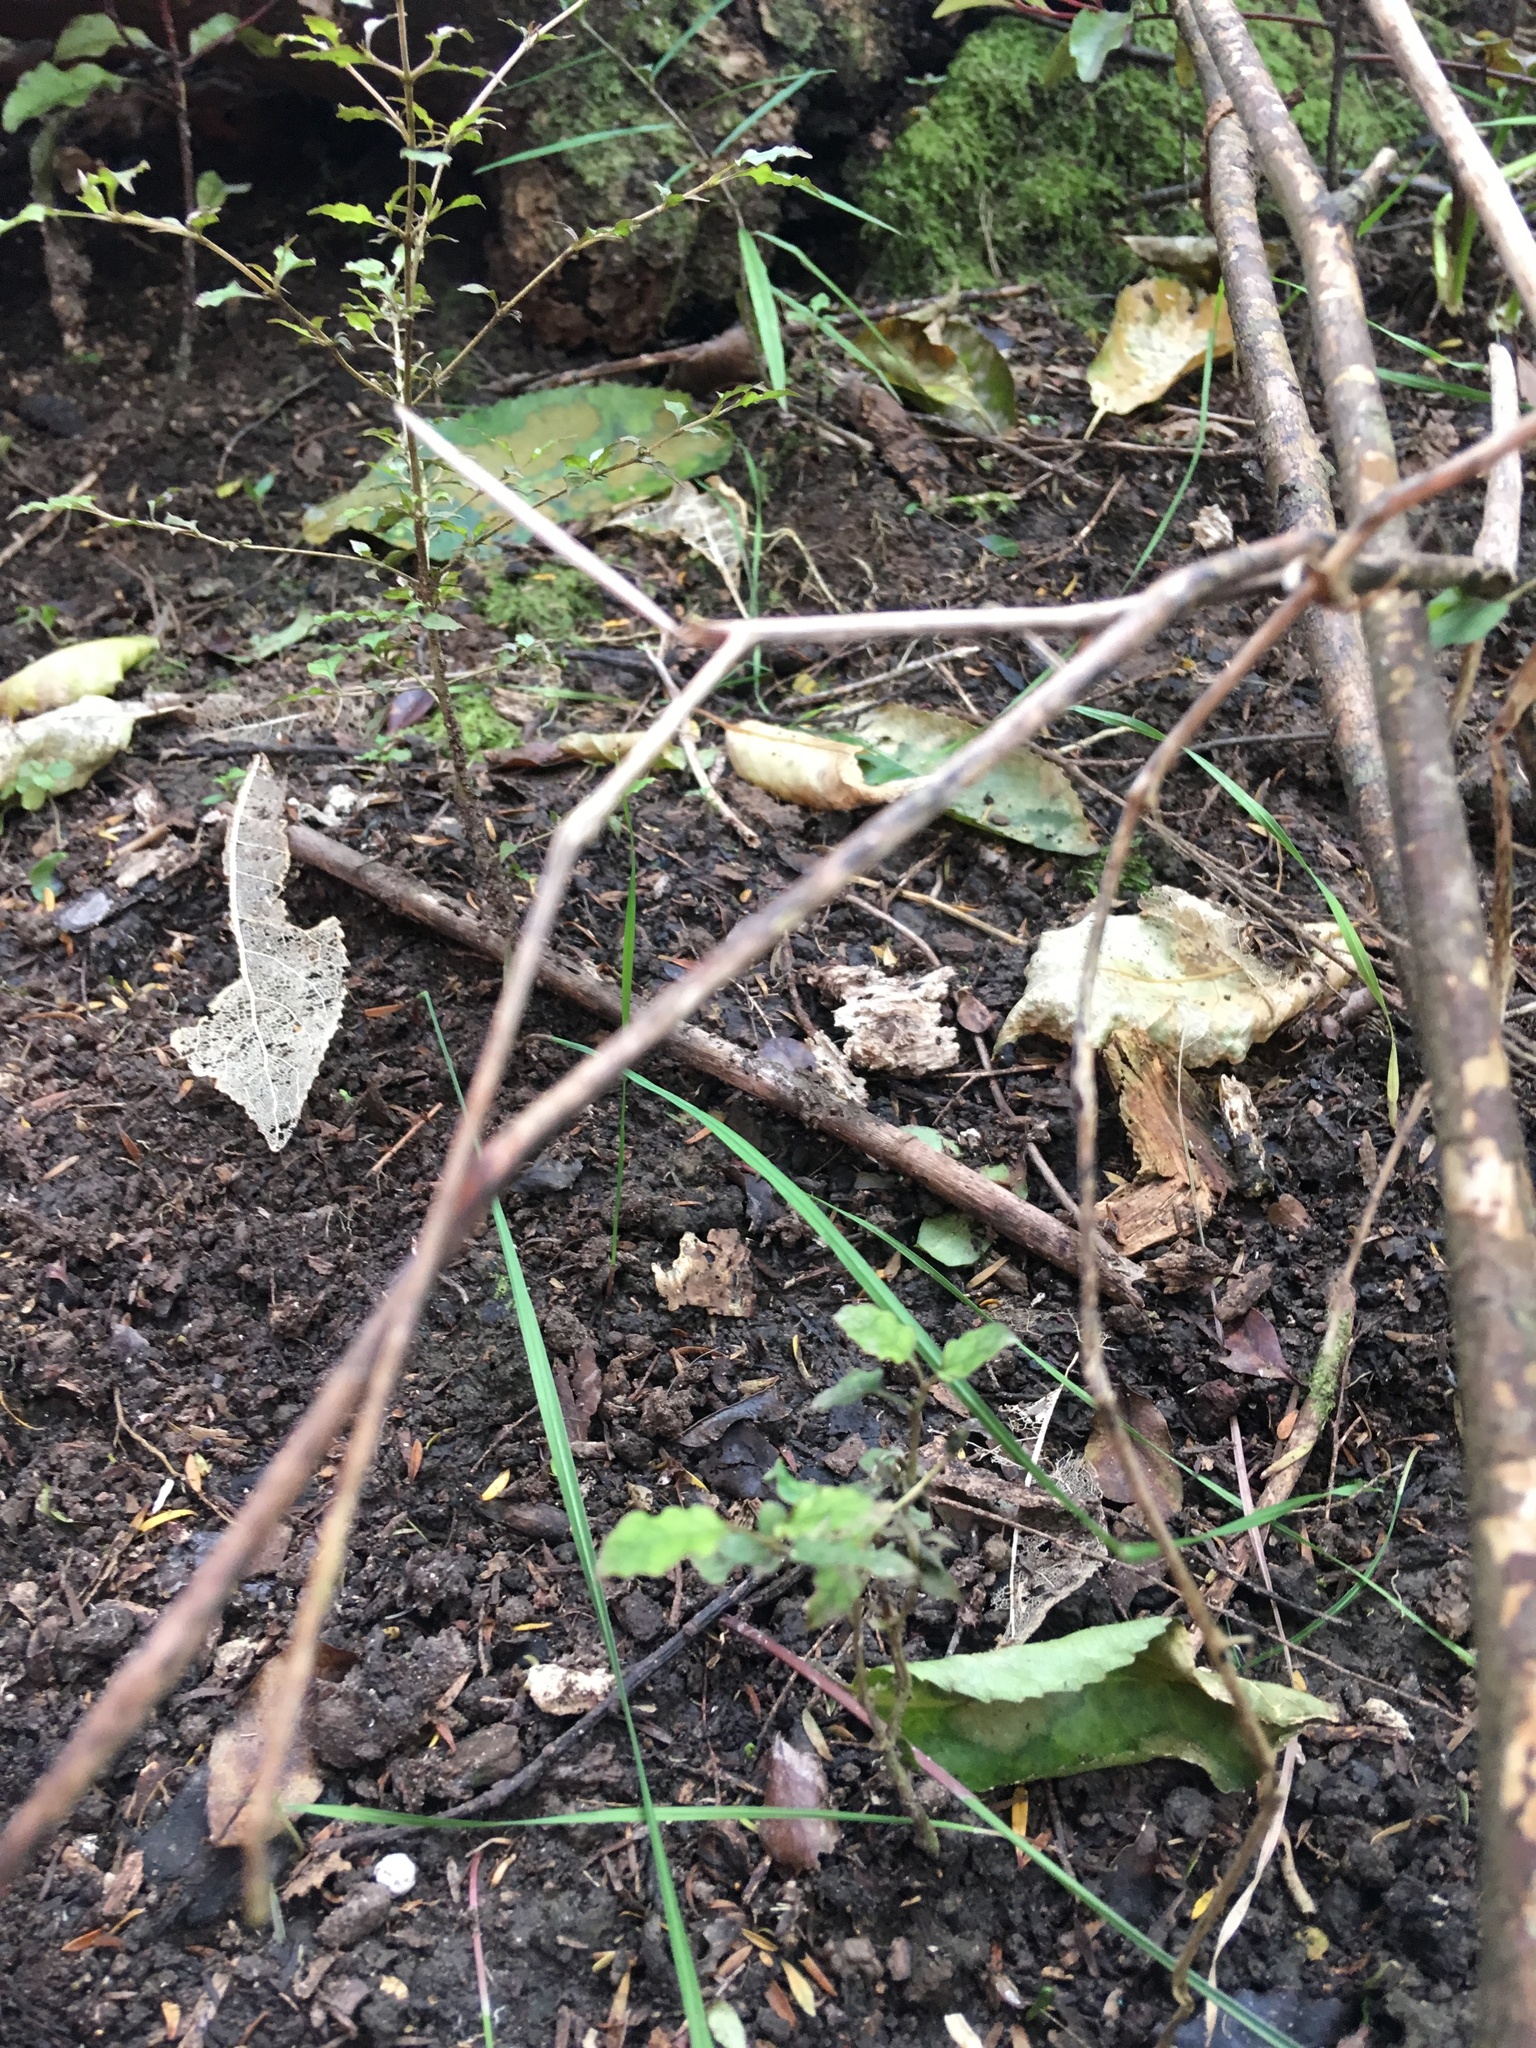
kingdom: Plantae
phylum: Tracheophyta
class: Magnoliopsida
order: Gentianales
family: Rubiaceae
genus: Coprosma
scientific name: Coprosma areolata
